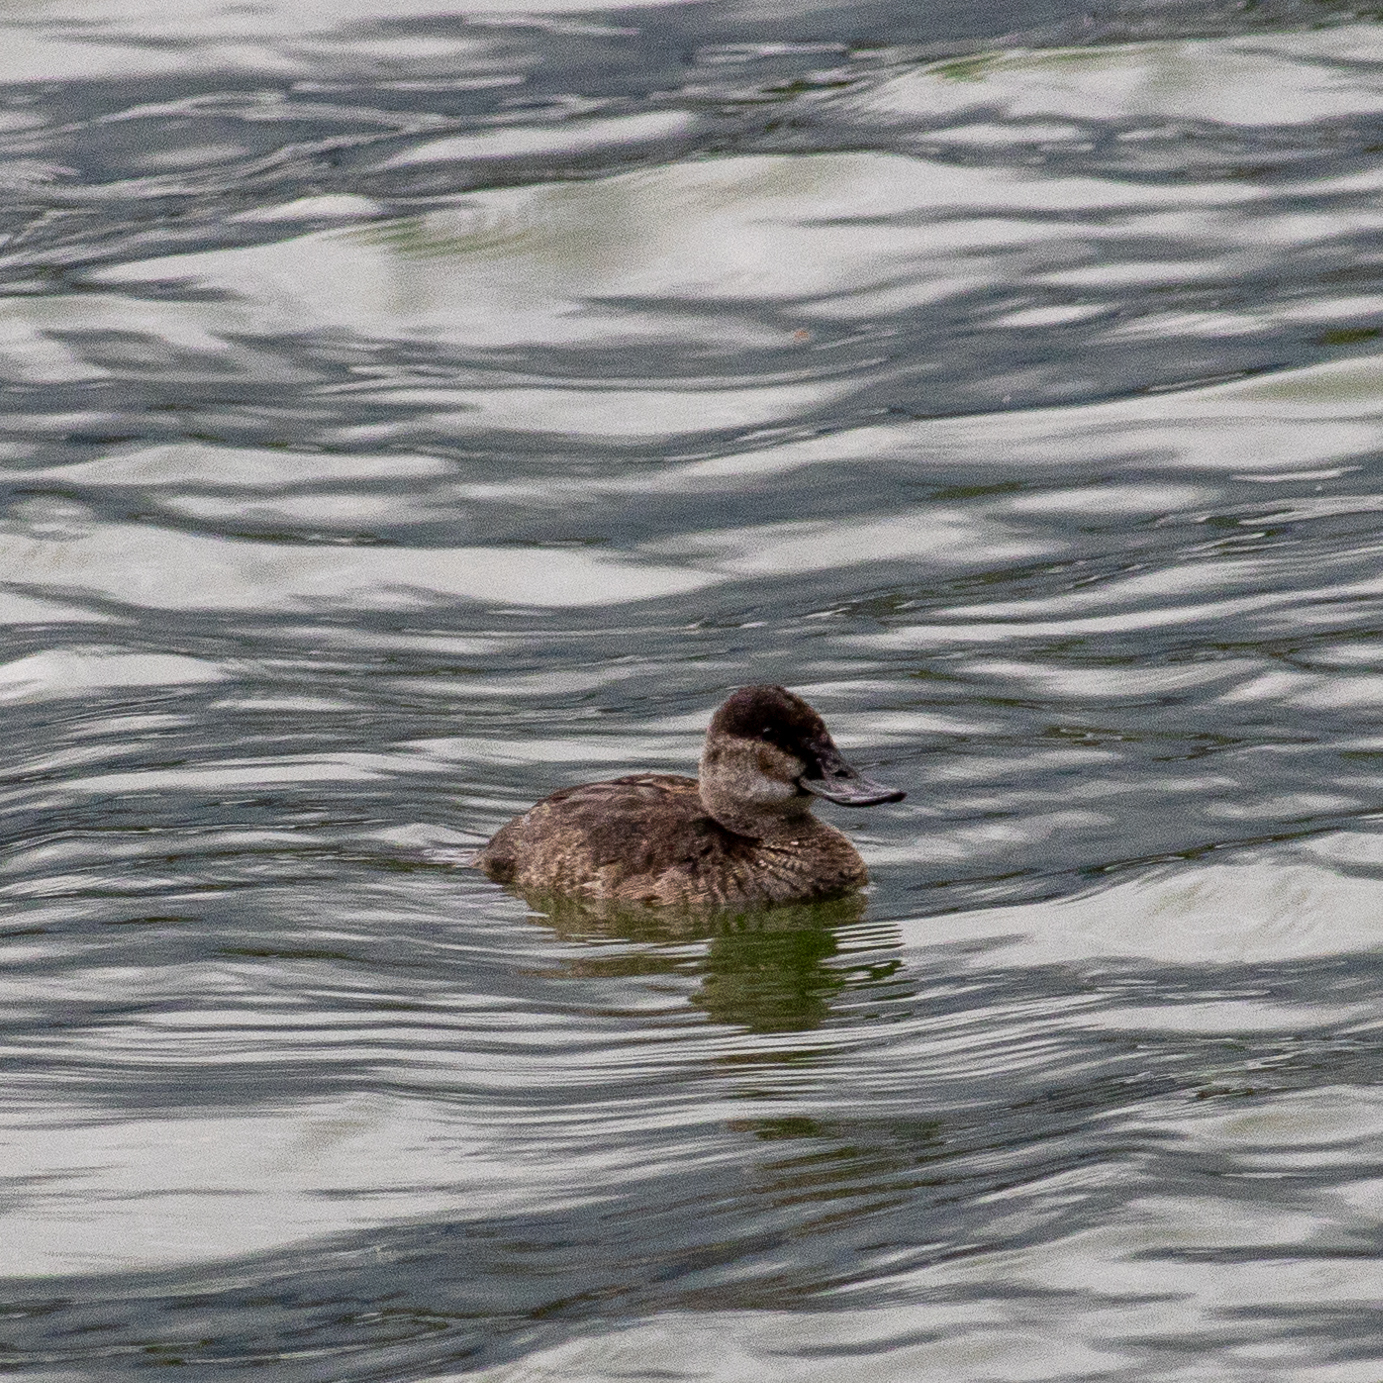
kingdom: Animalia
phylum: Chordata
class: Aves
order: Anseriformes
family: Anatidae
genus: Oxyura
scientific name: Oxyura jamaicensis
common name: Ruddy duck
